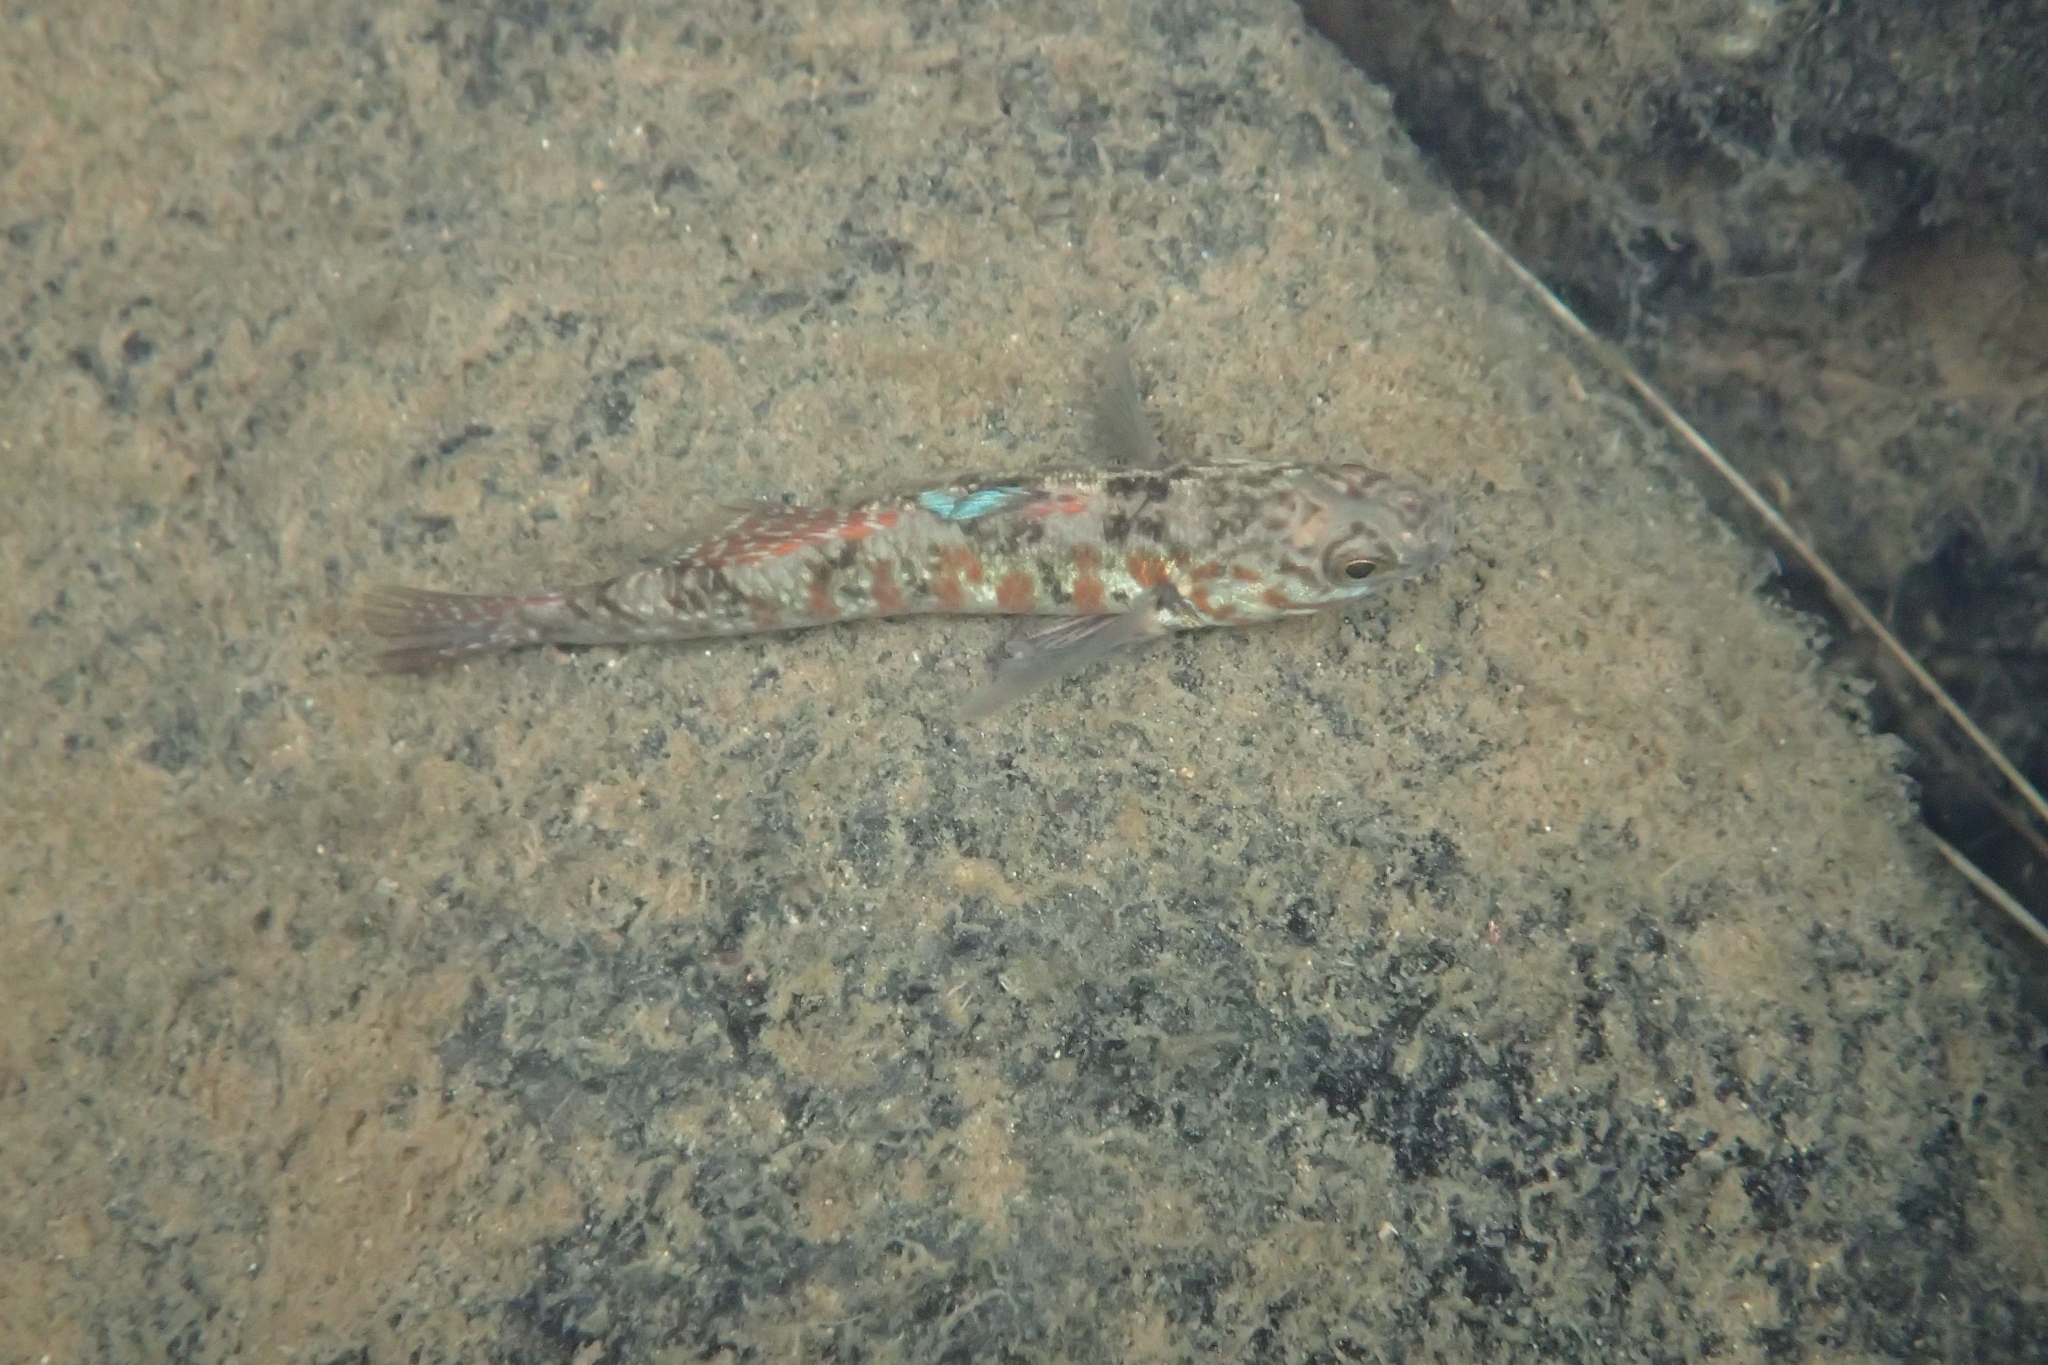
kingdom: Animalia
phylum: Chordata
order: Perciformes
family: Eleotridae
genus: Gobiomorphus
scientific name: Gobiomorphus huttoni
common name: Redfin bully
